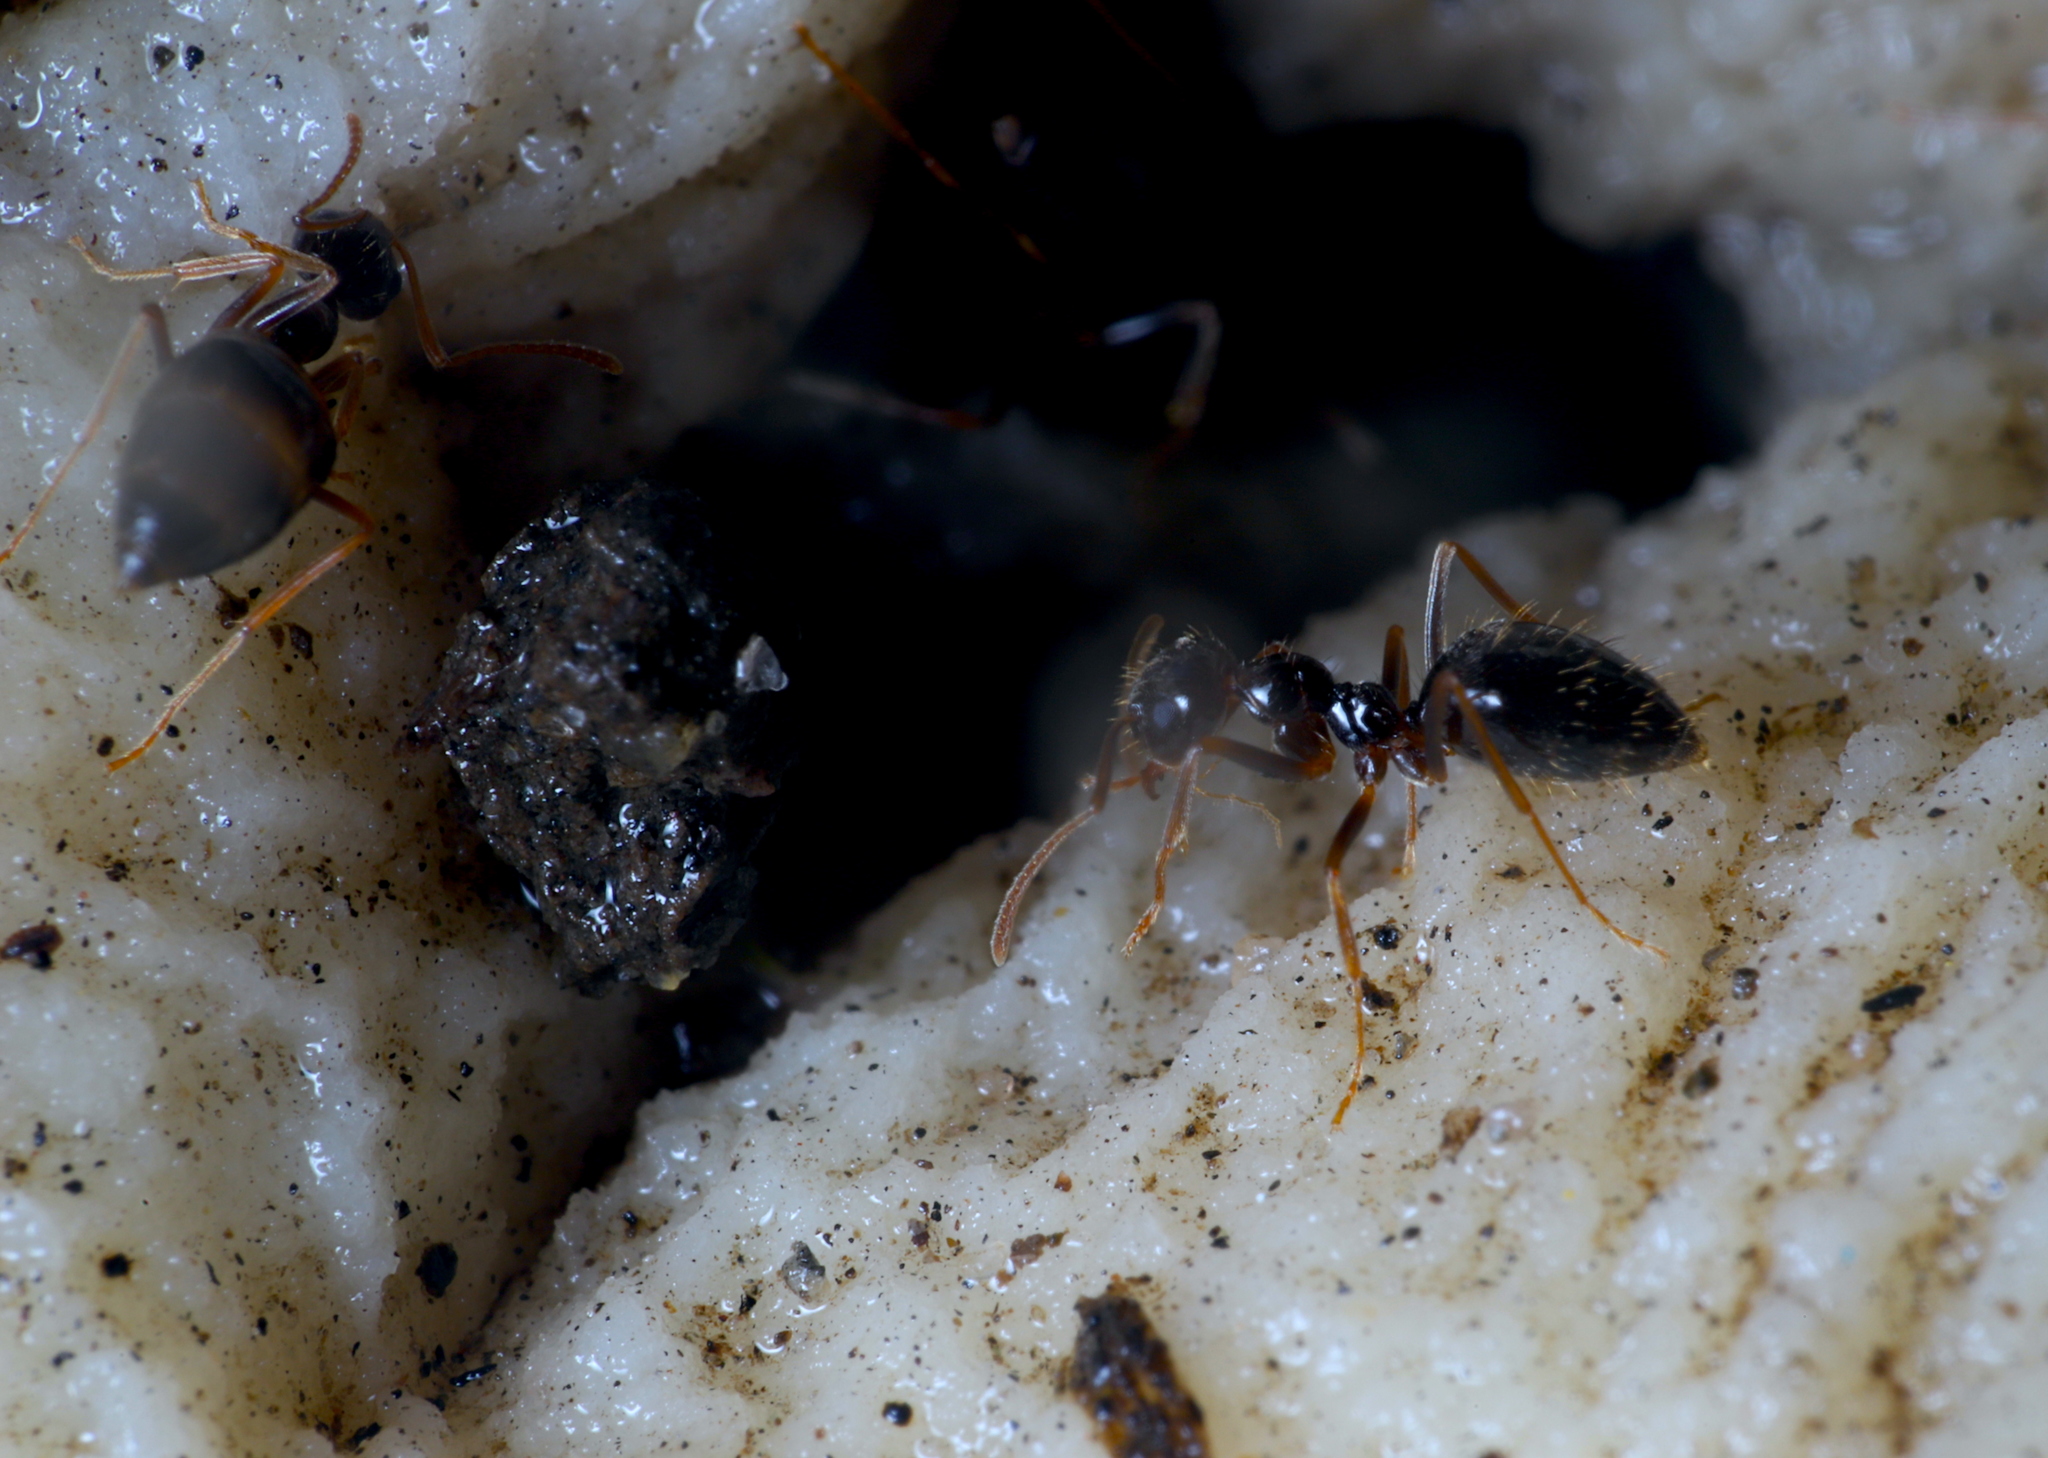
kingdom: Animalia
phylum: Arthropoda
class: Insecta
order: Hymenoptera
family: Formicidae
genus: Prenolepis
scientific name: Prenolepis imparis
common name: Small honey ant
